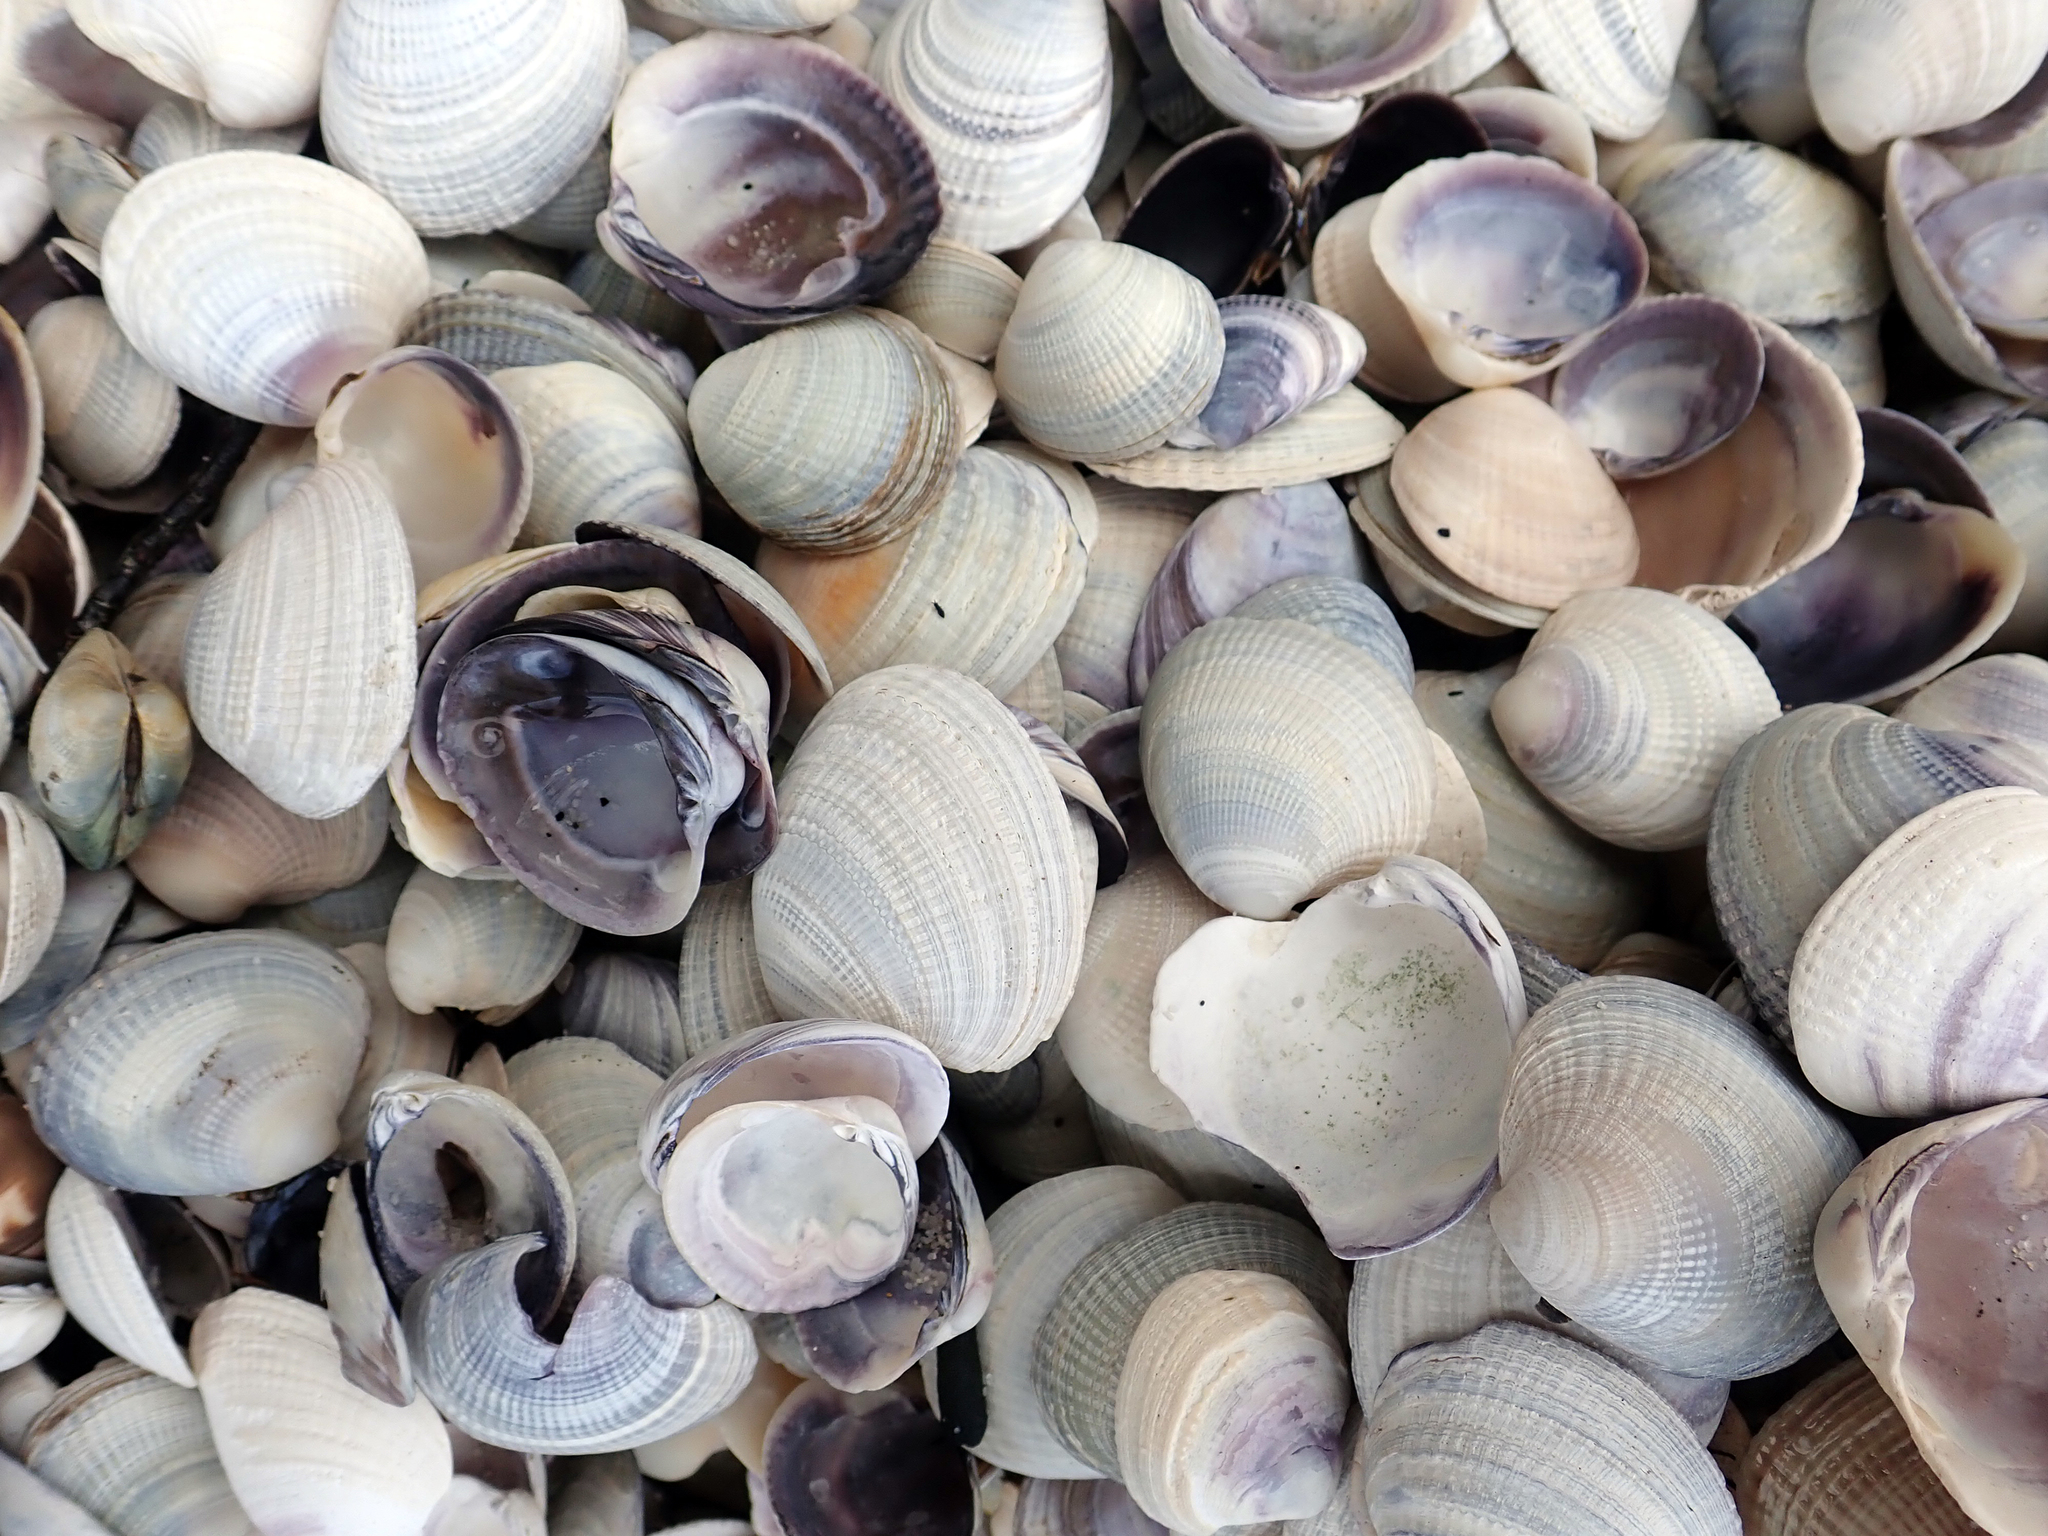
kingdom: Animalia
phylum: Mollusca
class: Bivalvia
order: Venerida
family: Veneridae
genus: Austrovenus
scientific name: Austrovenus stutchburyi
